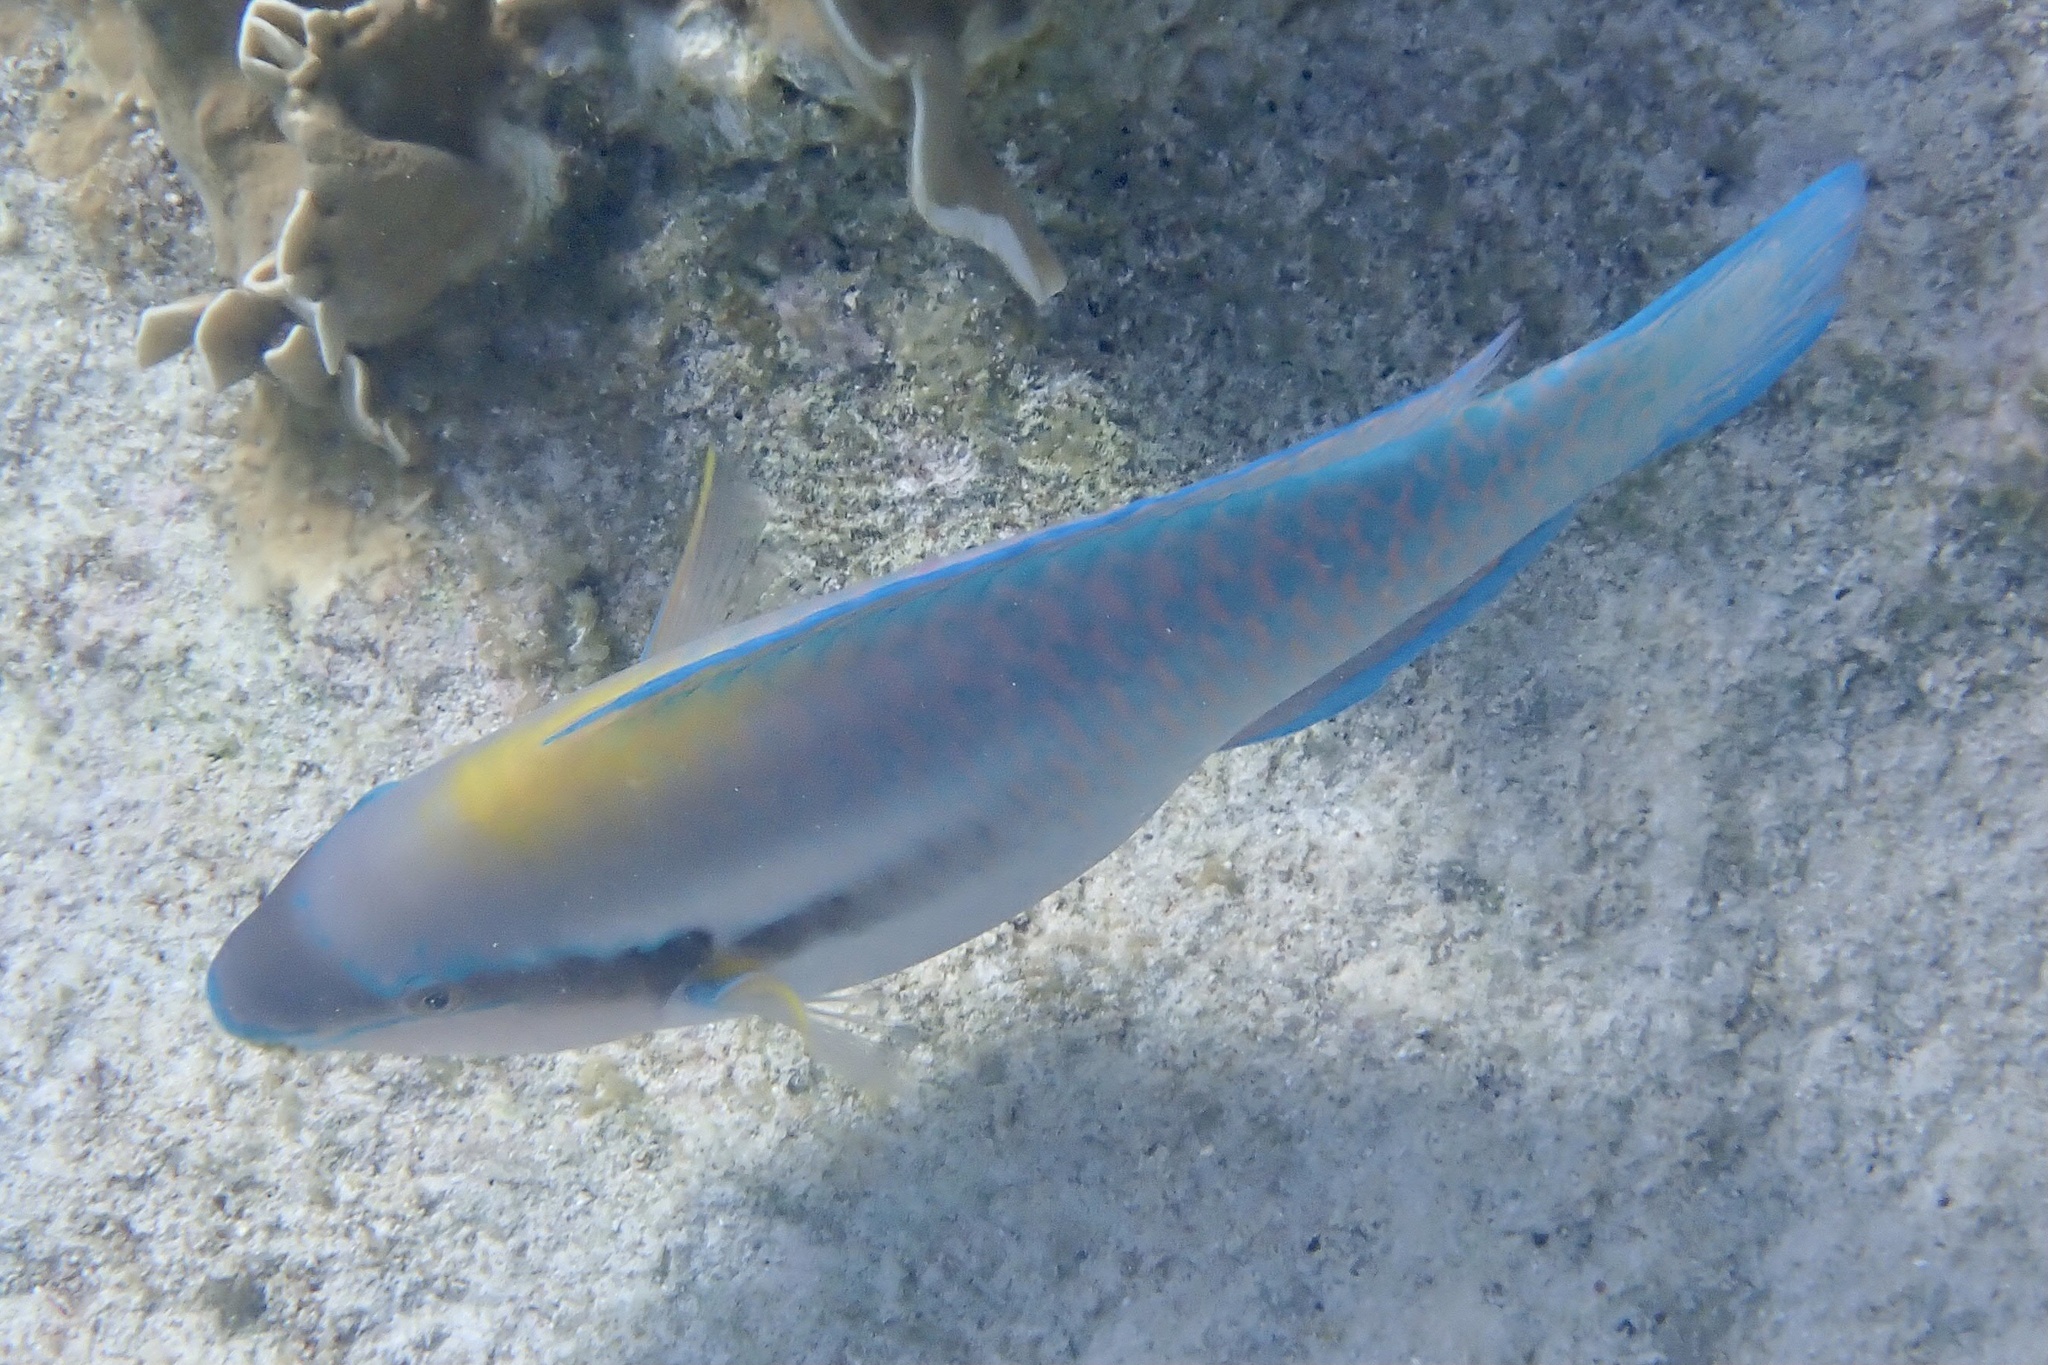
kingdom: Animalia
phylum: Chordata
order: Perciformes
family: Scaridae
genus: Scarus
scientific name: Scarus iseri
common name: Striped parrotfish
